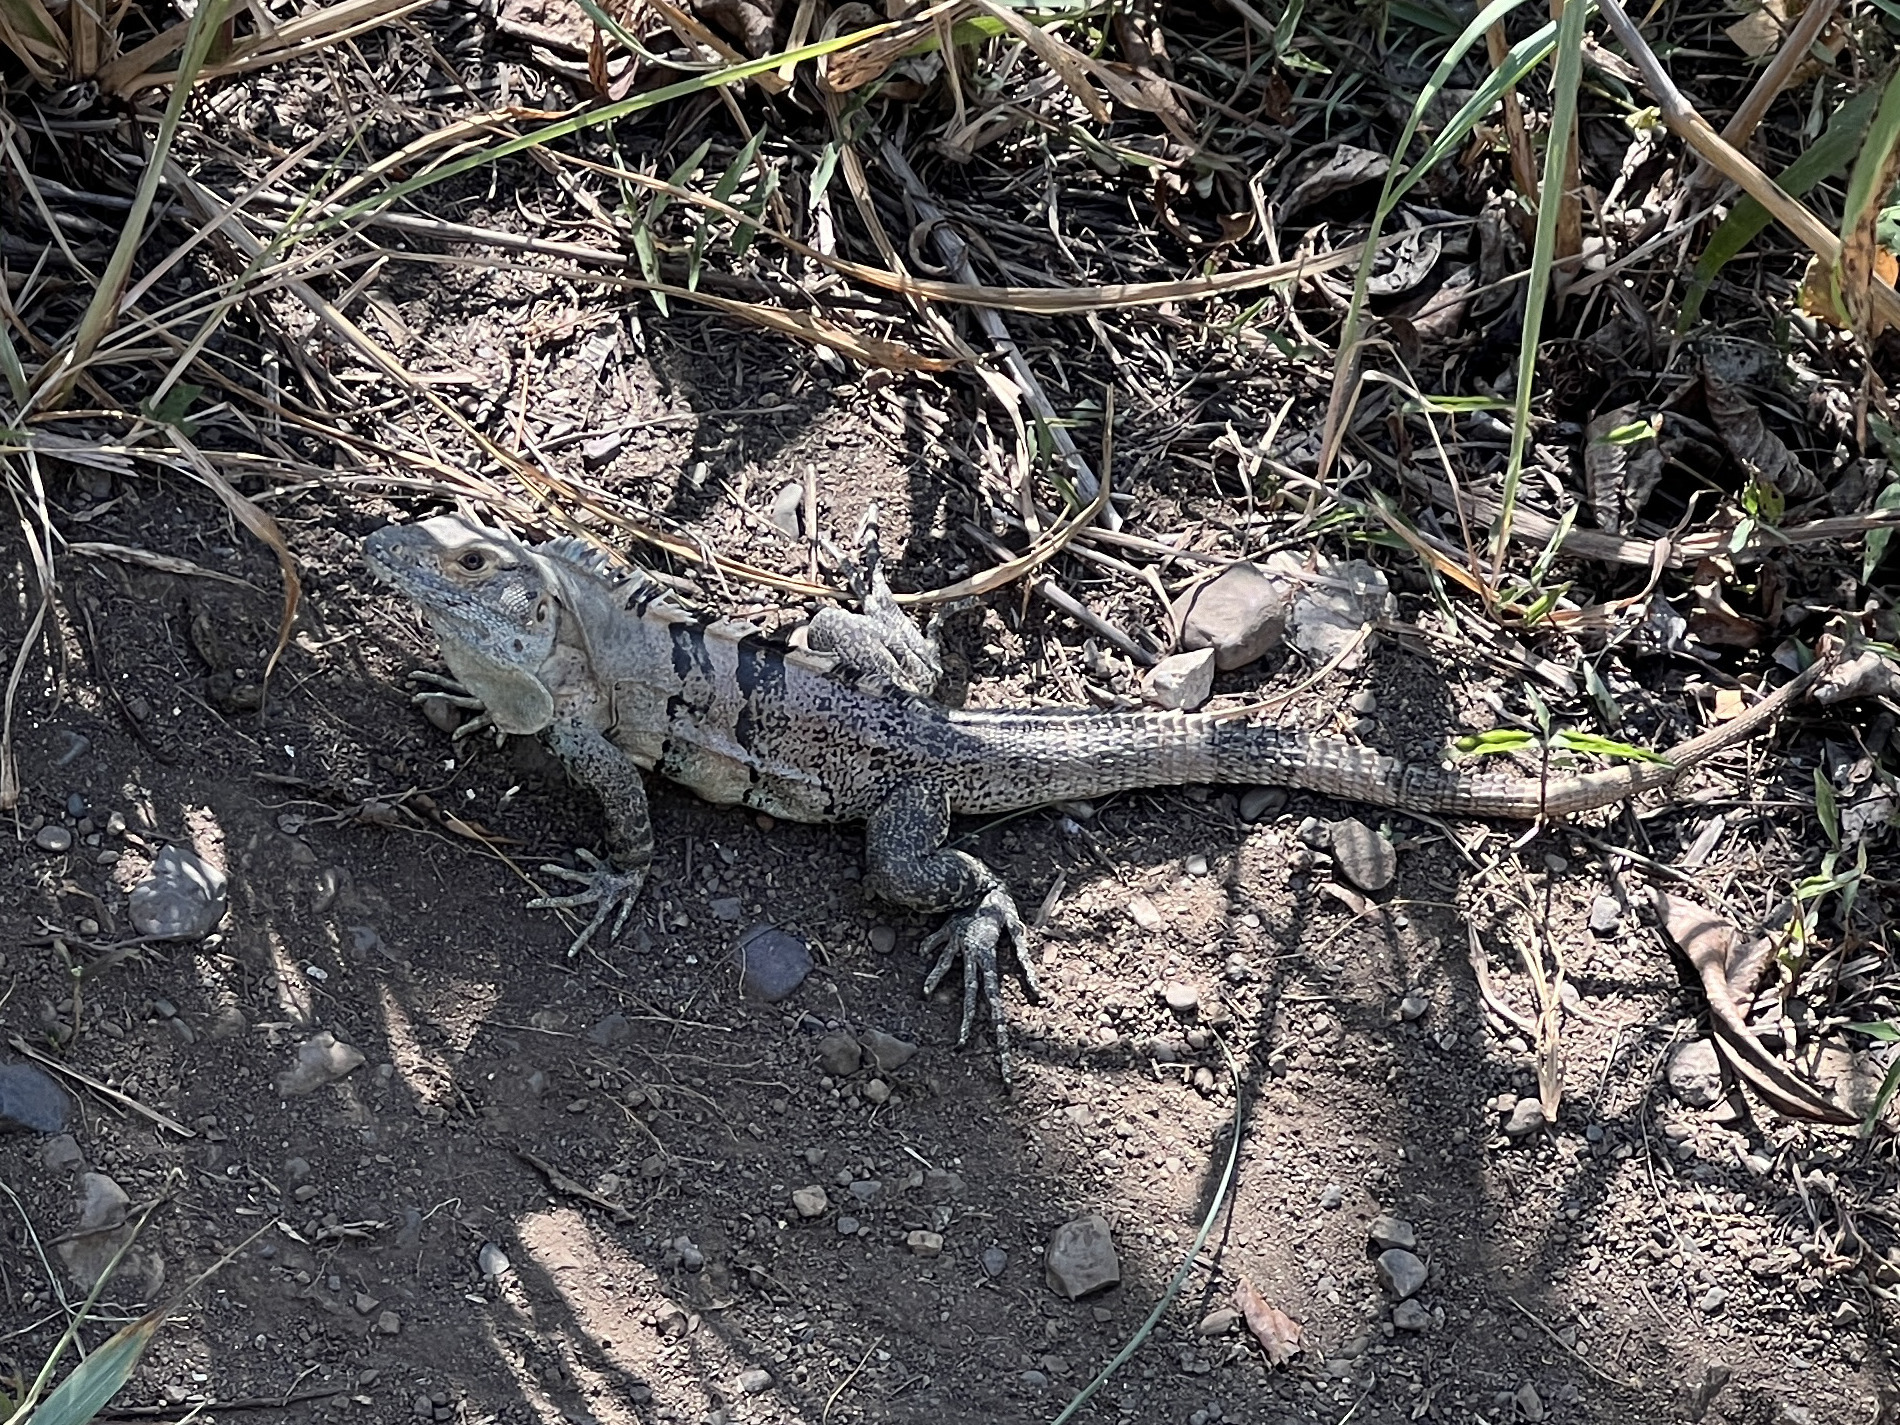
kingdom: Animalia
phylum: Chordata
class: Squamata
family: Iguanidae
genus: Ctenosaura
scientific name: Ctenosaura similis
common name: Black spiny-tailed iguana
